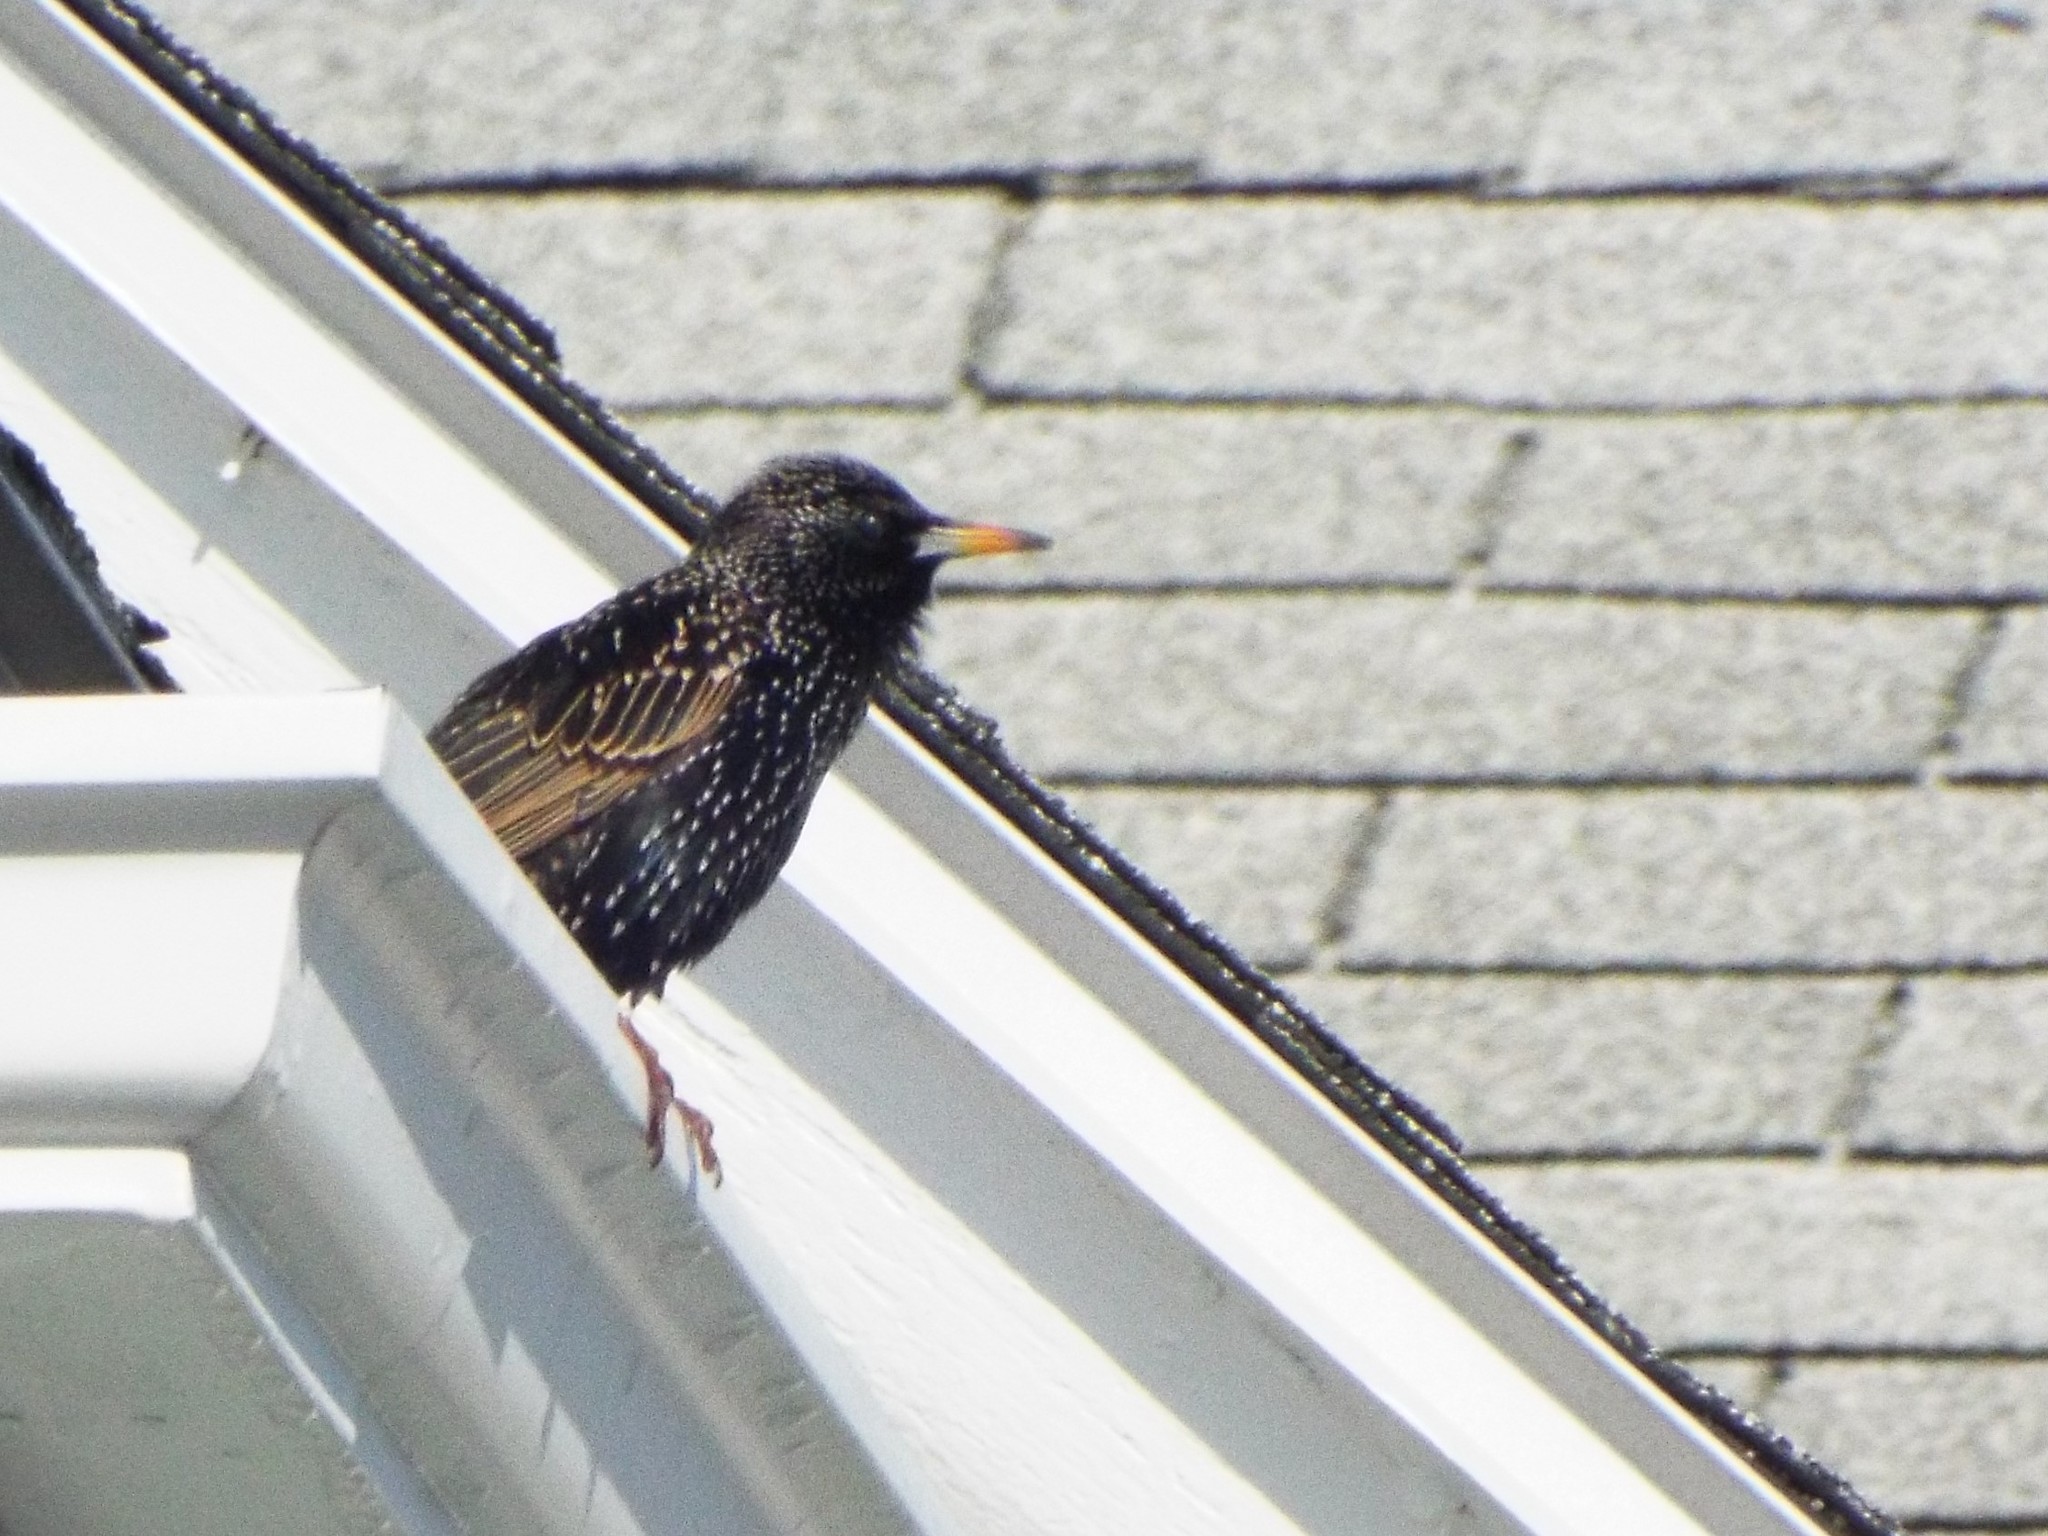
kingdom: Animalia
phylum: Chordata
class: Aves
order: Passeriformes
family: Sturnidae
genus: Sturnus
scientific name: Sturnus vulgaris
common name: Common starling
